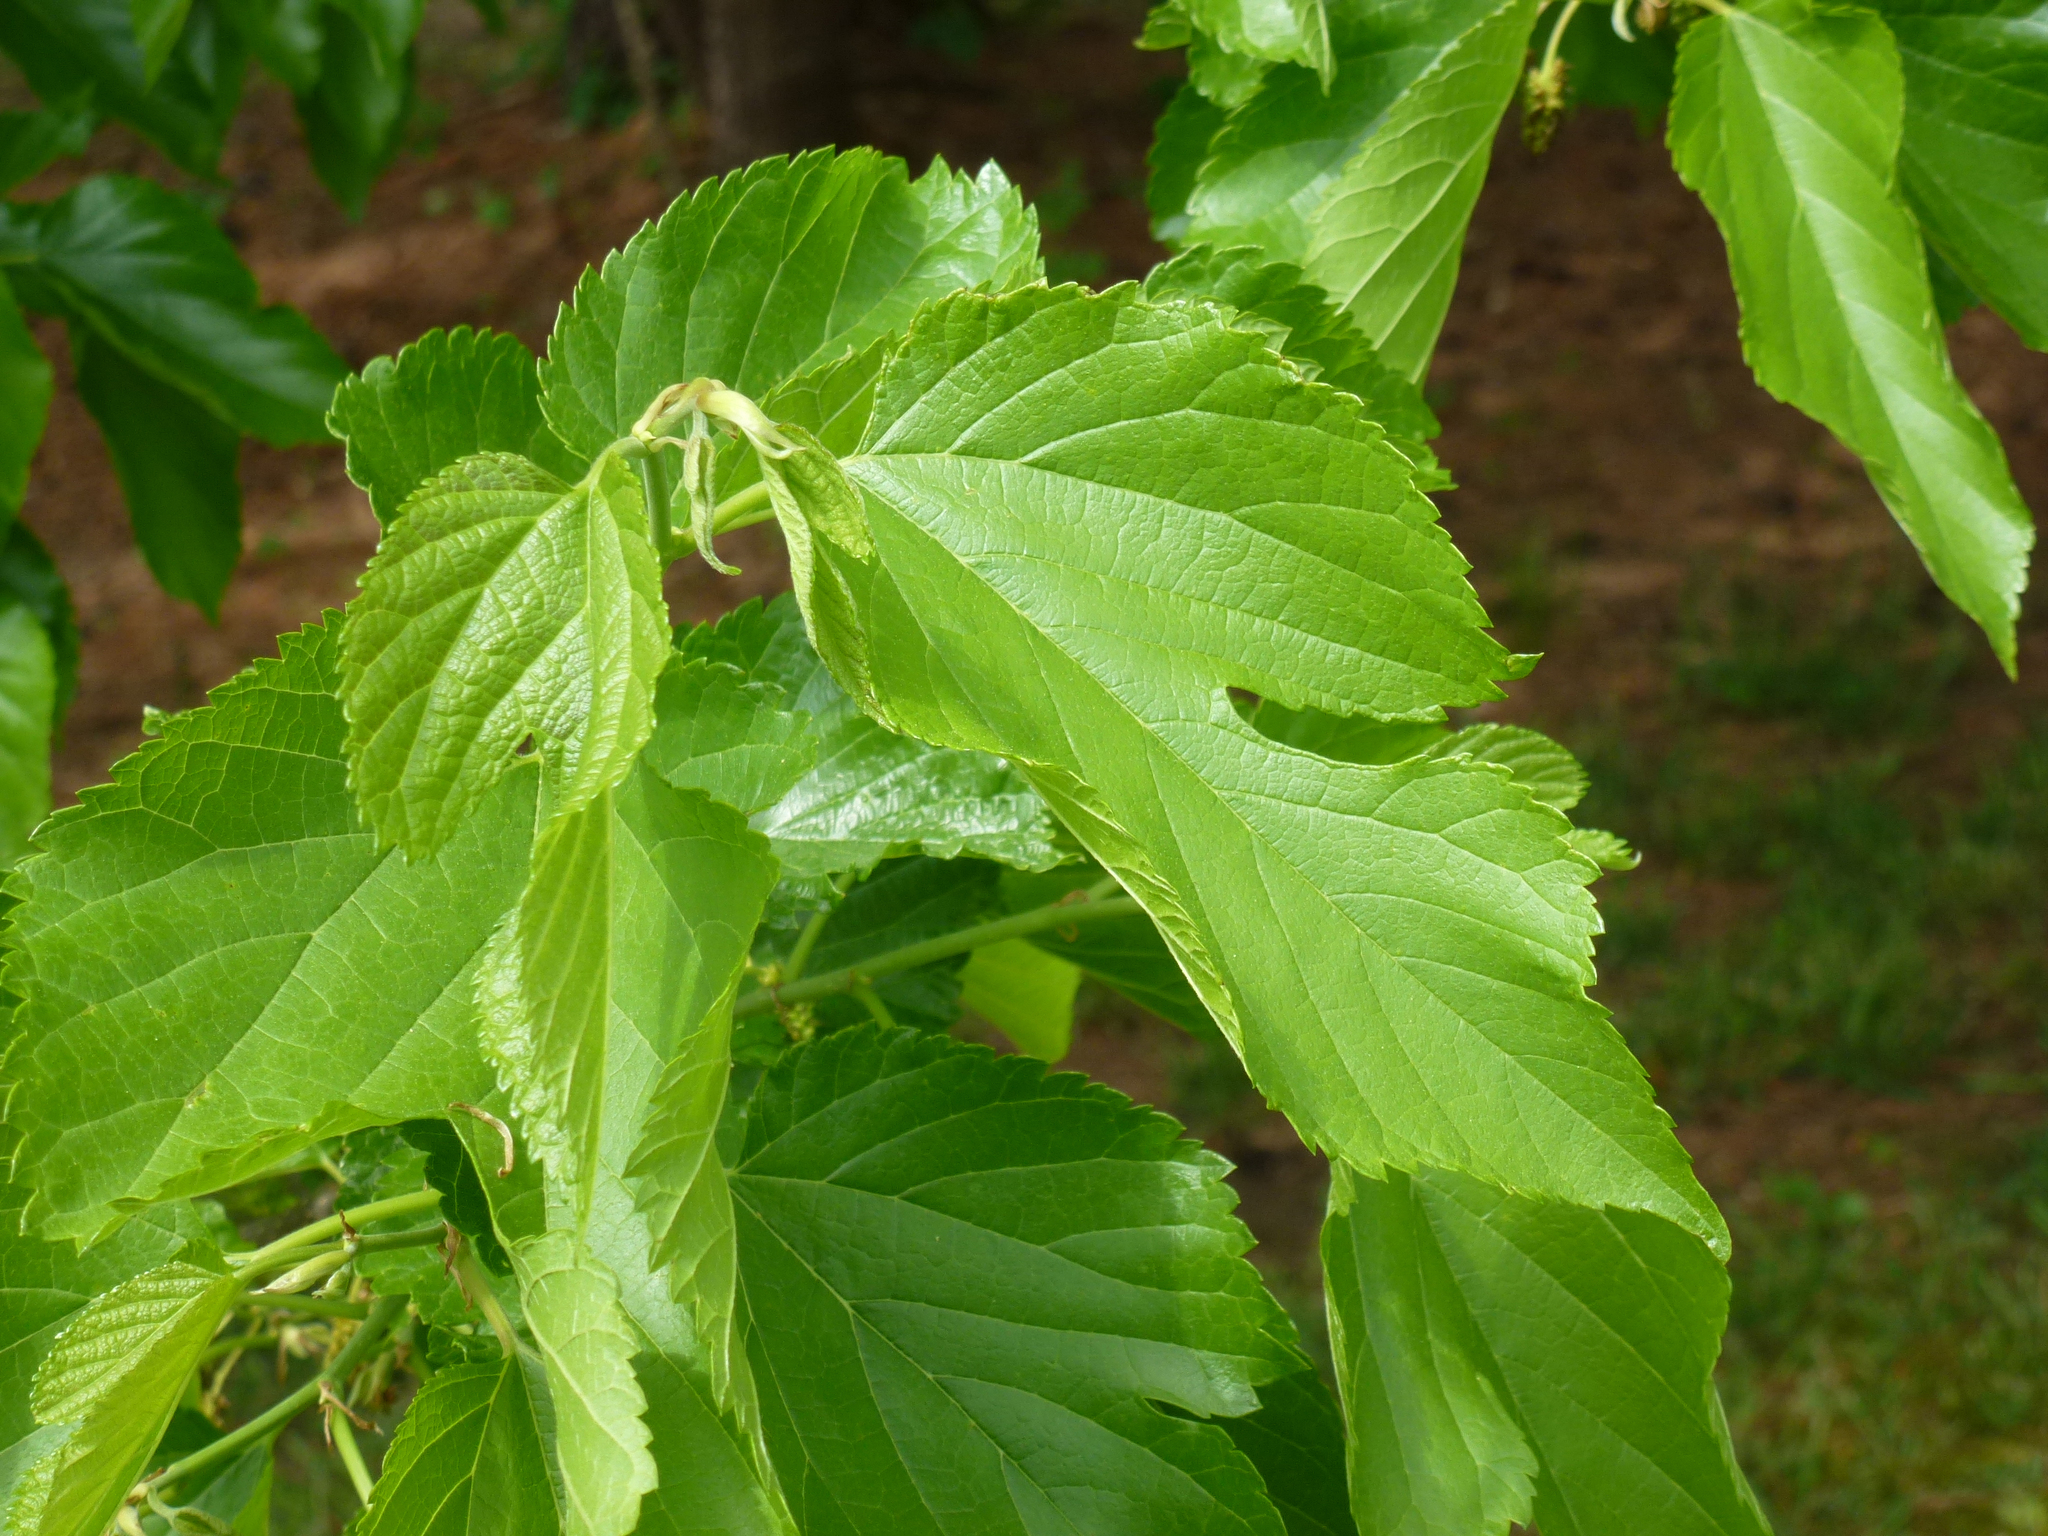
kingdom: Plantae
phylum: Tracheophyta
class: Magnoliopsida
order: Rosales
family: Moraceae
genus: Morus
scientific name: Morus rubra
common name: Red mulberry
